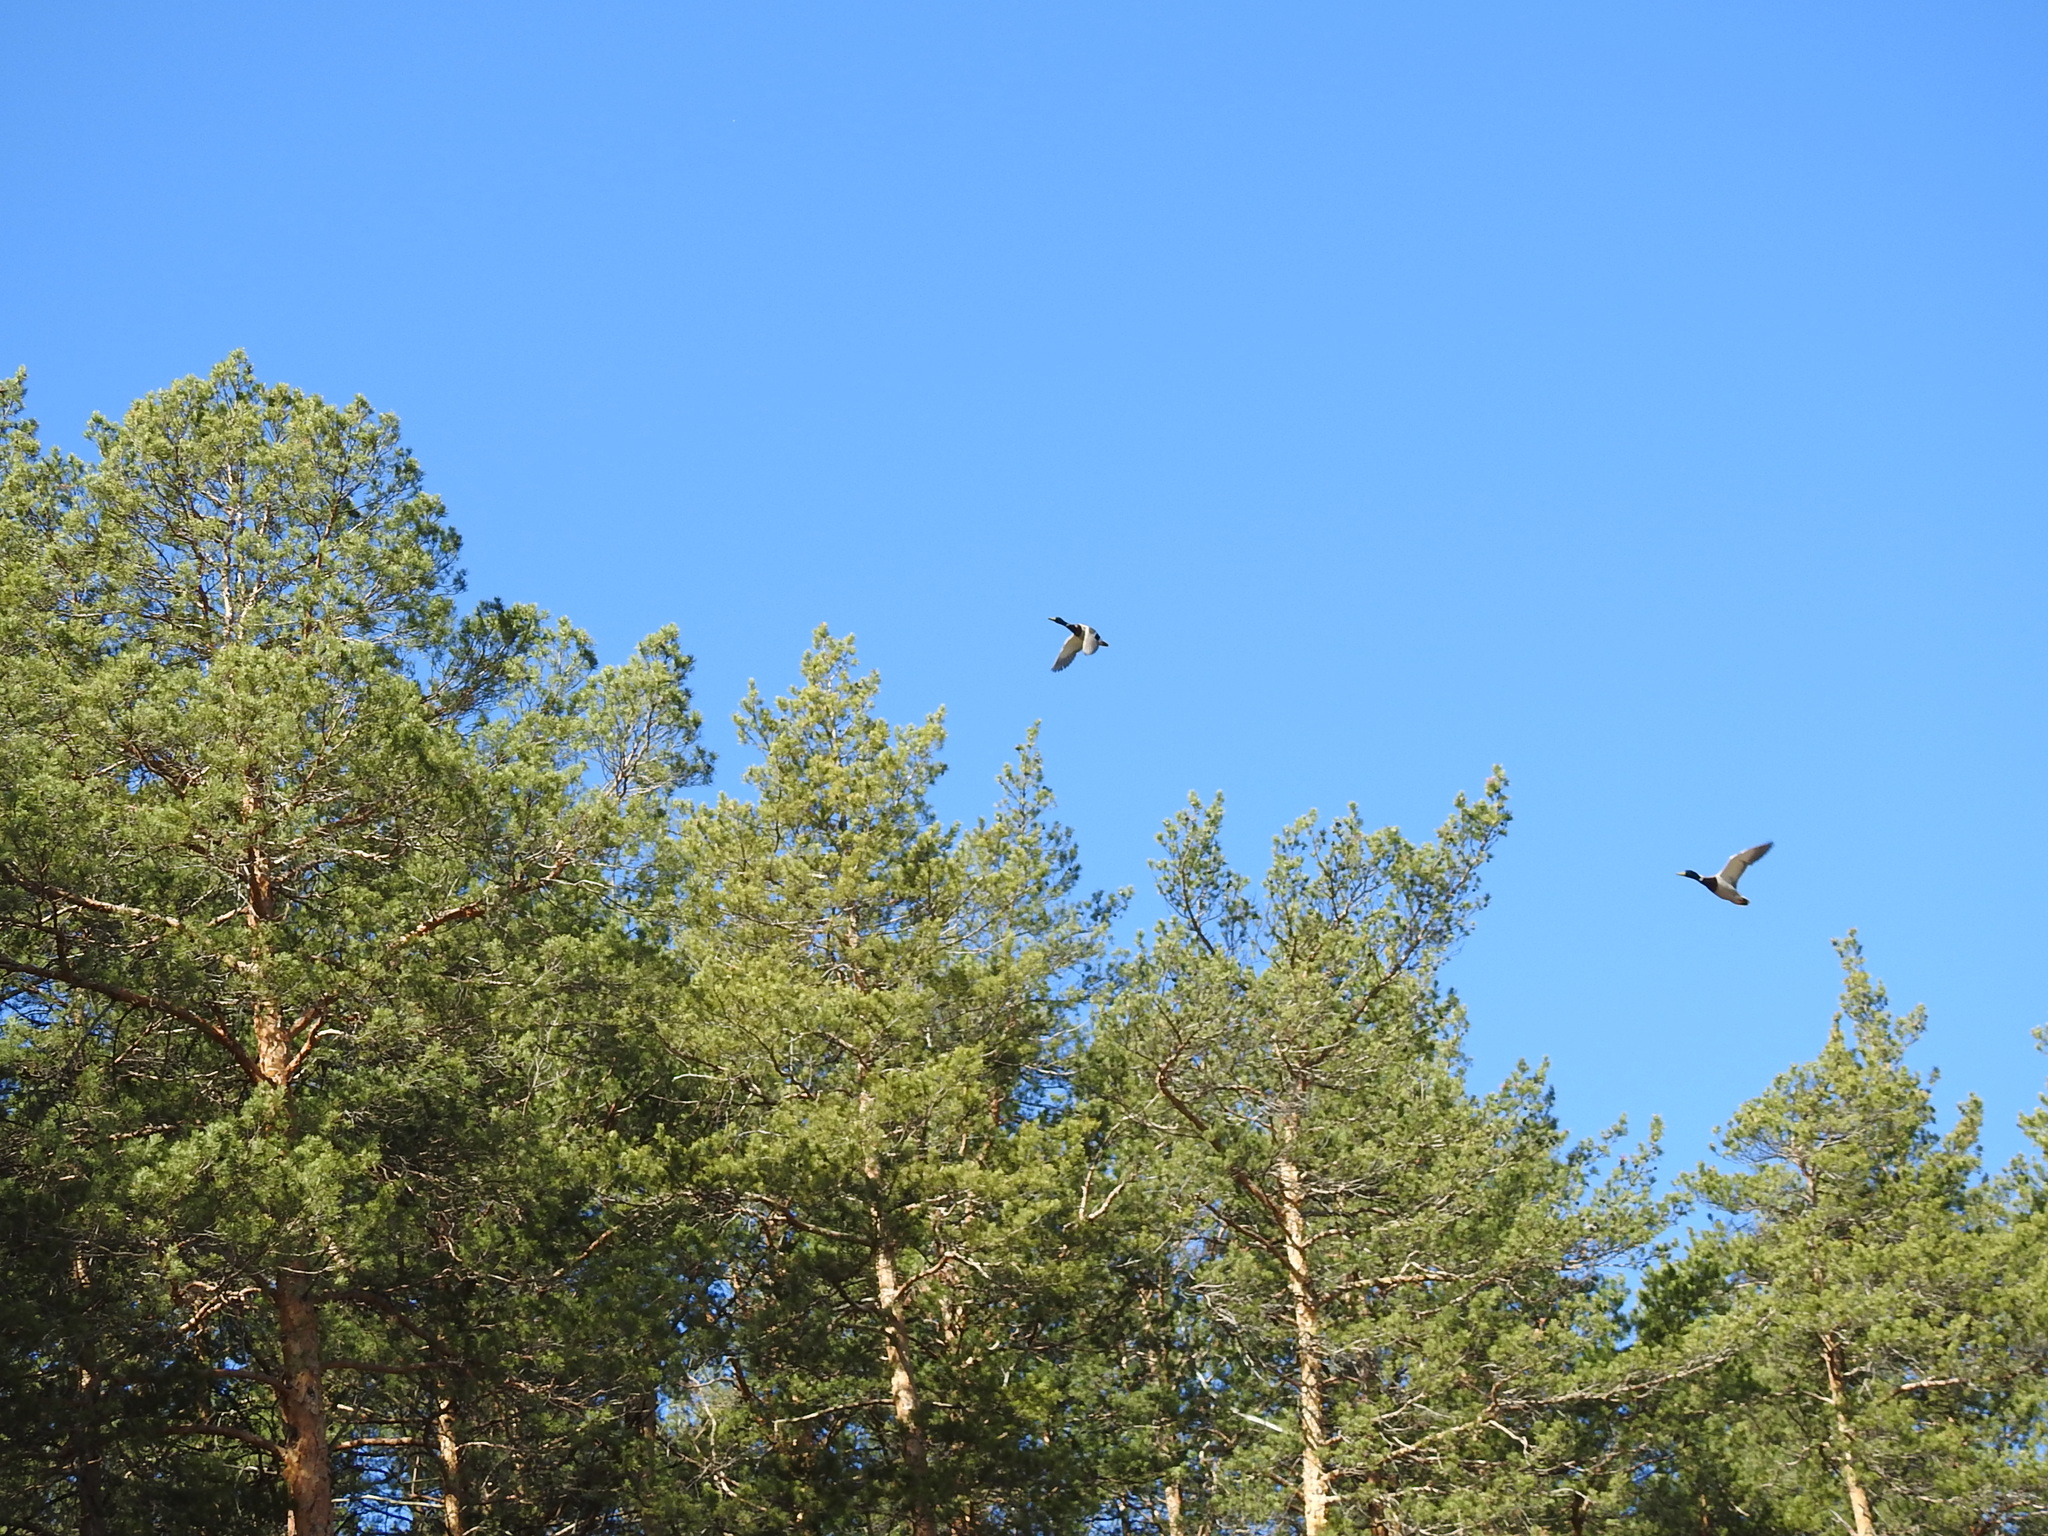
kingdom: Animalia
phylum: Chordata
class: Aves
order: Anseriformes
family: Anatidae
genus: Anas
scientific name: Anas platyrhynchos
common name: Mallard
